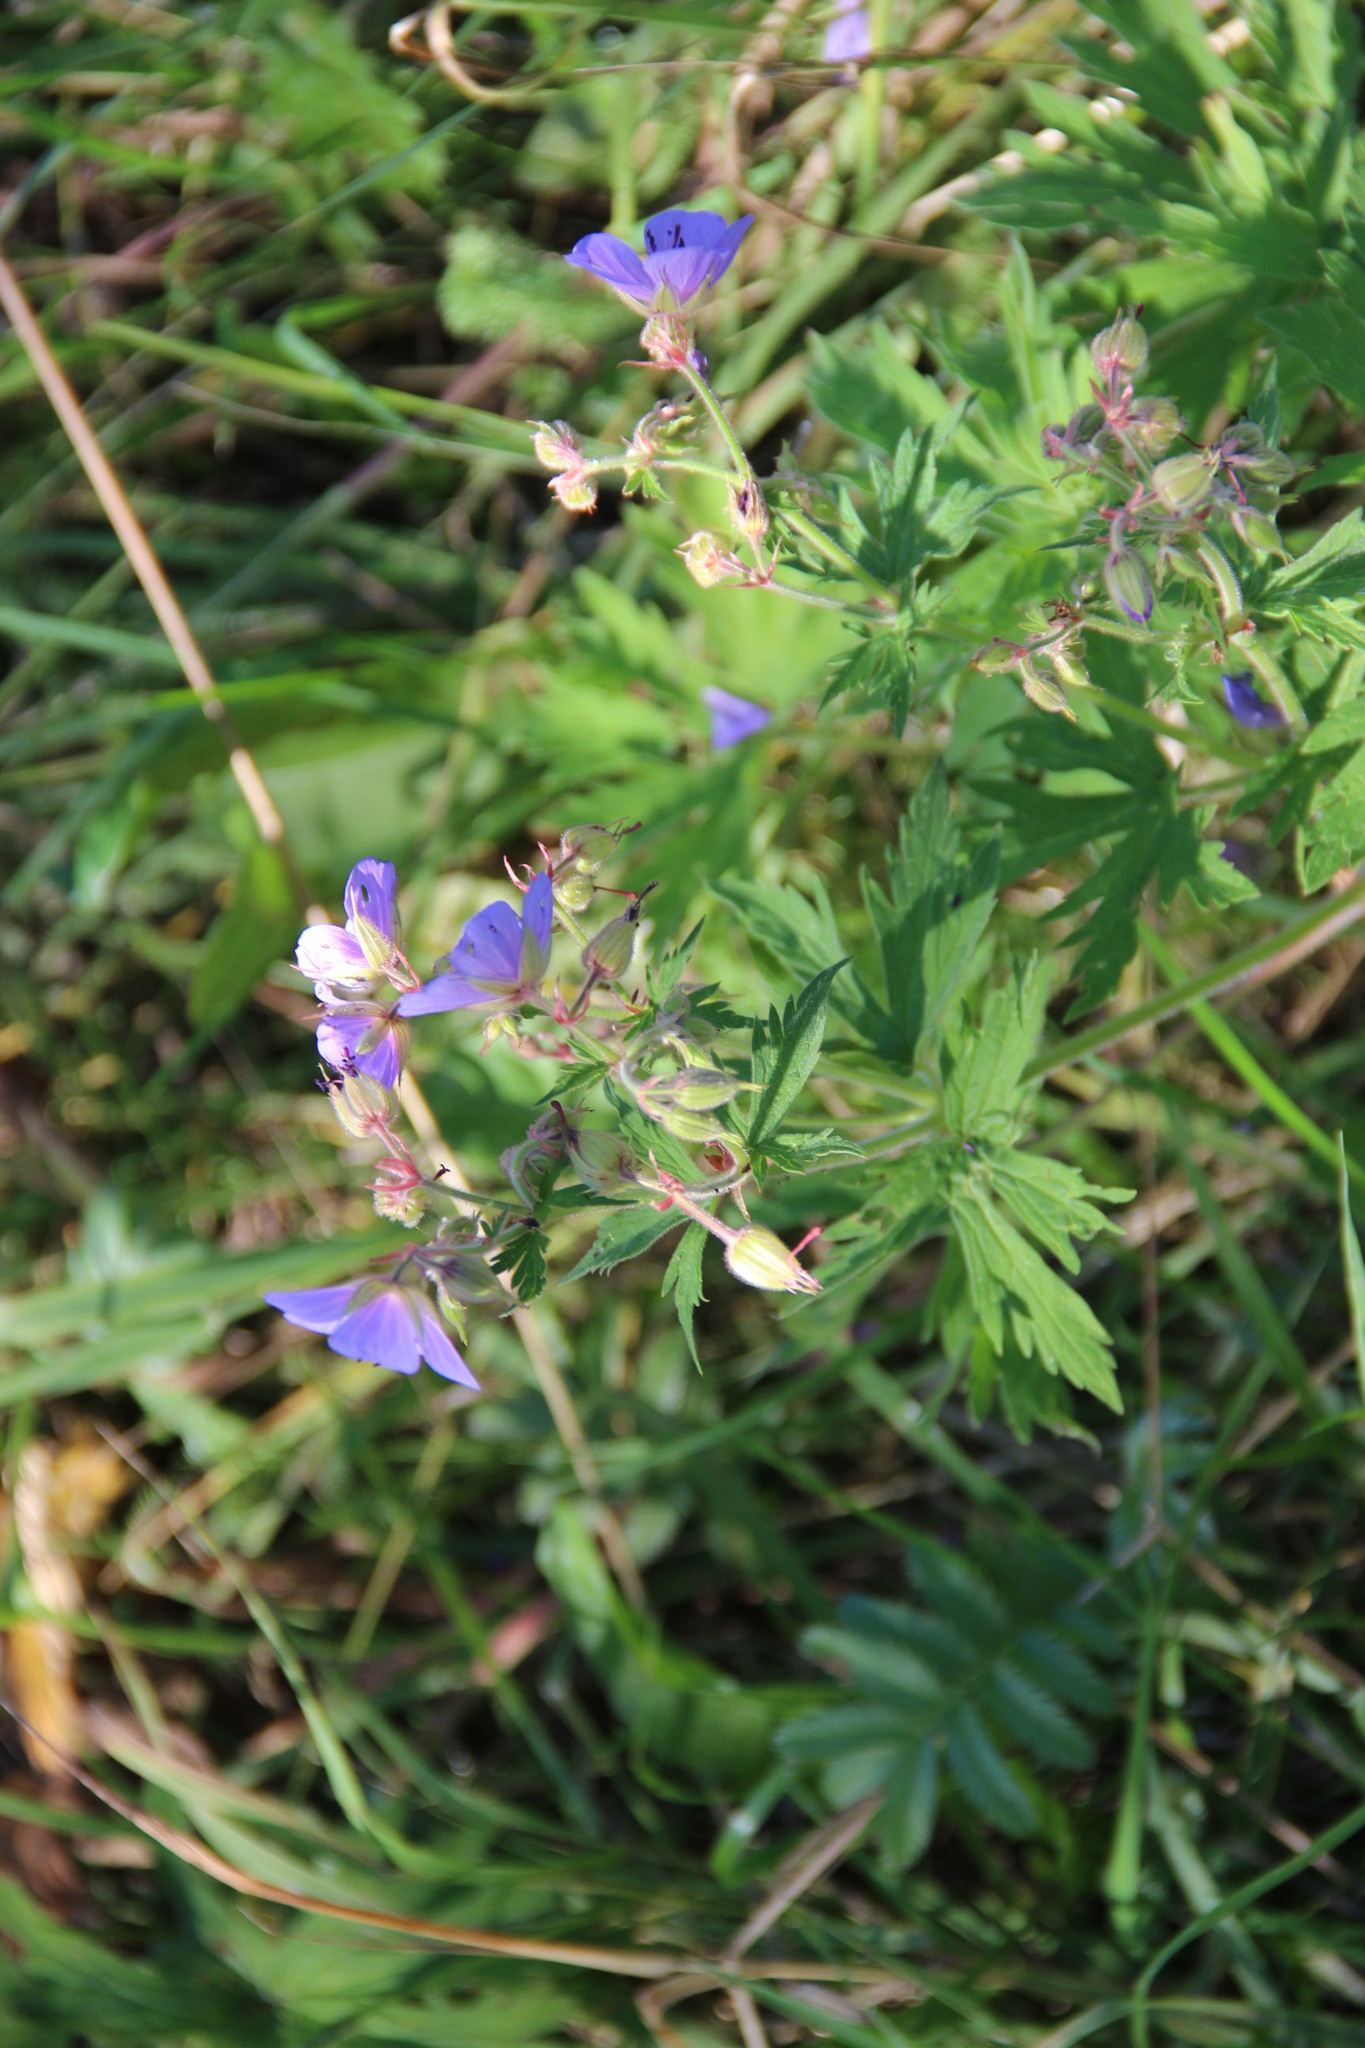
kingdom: Plantae
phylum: Tracheophyta
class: Magnoliopsida
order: Geraniales
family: Geraniaceae
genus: Geranium
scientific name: Geranium pratense
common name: Meadow crane's-bill
